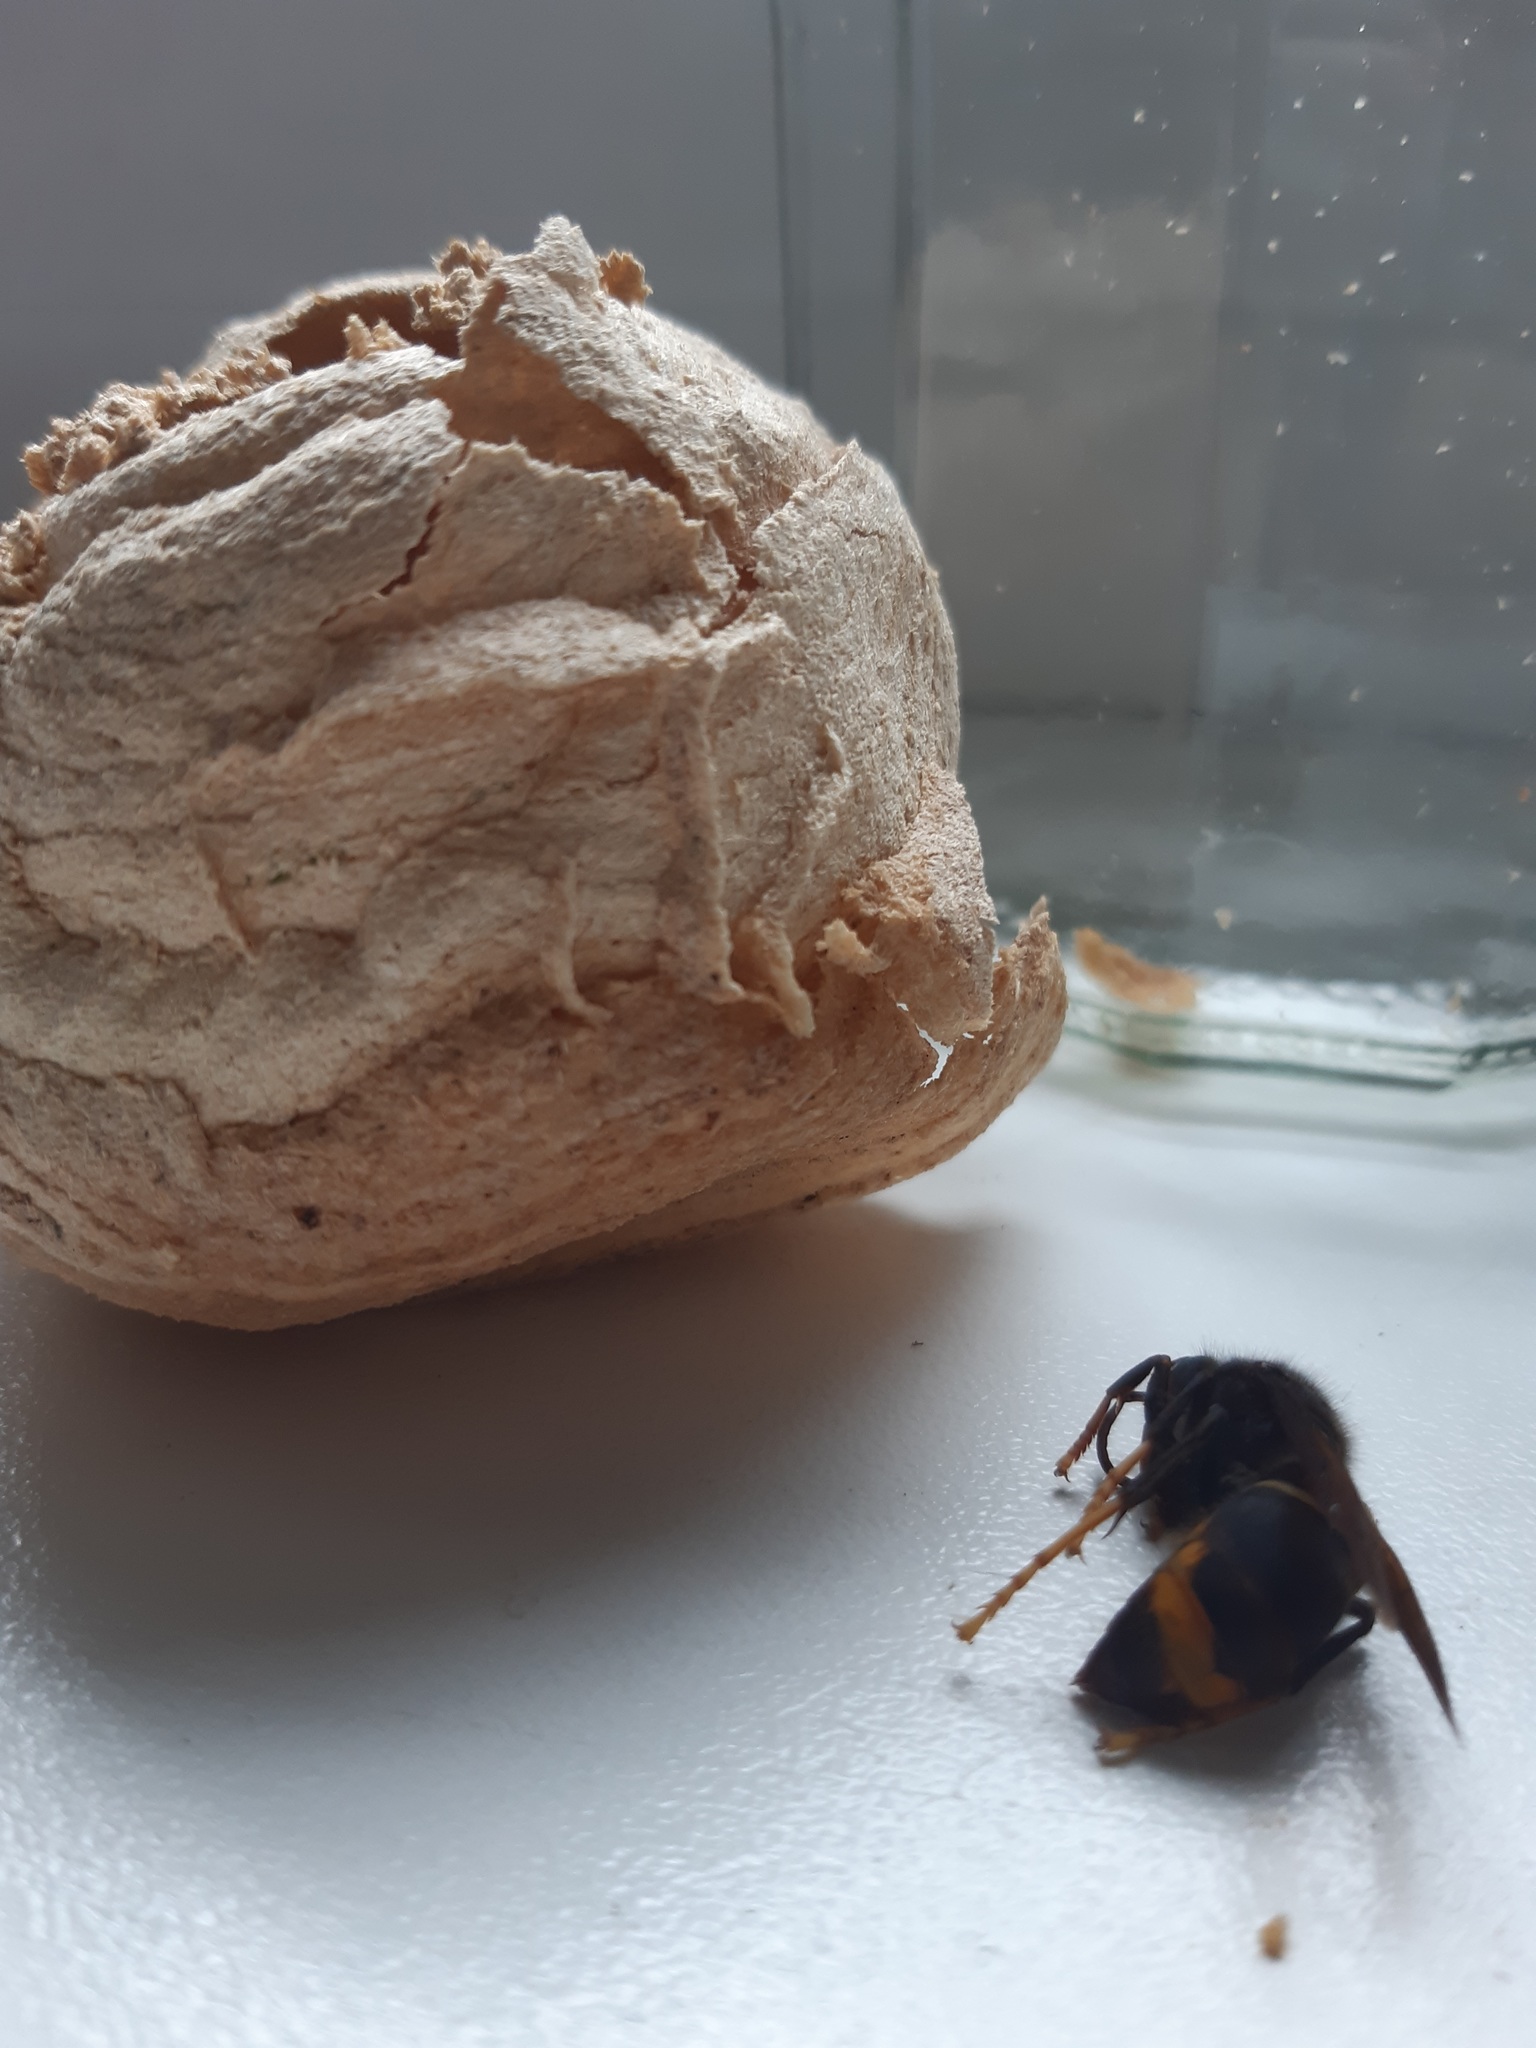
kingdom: Animalia
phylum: Arthropoda
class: Insecta
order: Hymenoptera
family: Vespidae
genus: Vespa
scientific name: Vespa velutina
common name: Asian hornet
